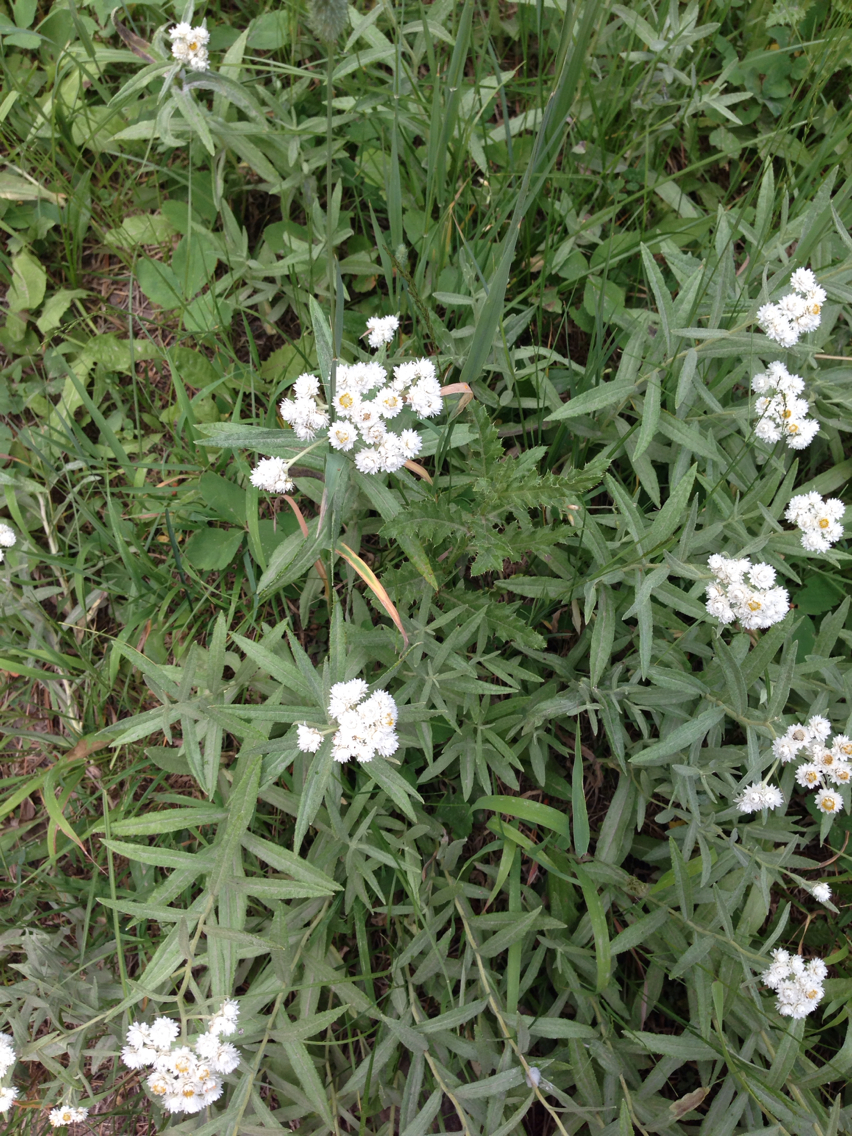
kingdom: Plantae
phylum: Tracheophyta
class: Magnoliopsida
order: Asterales
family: Asteraceae
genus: Anaphalis
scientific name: Anaphalis margaritacea
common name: Pearly everlasting
